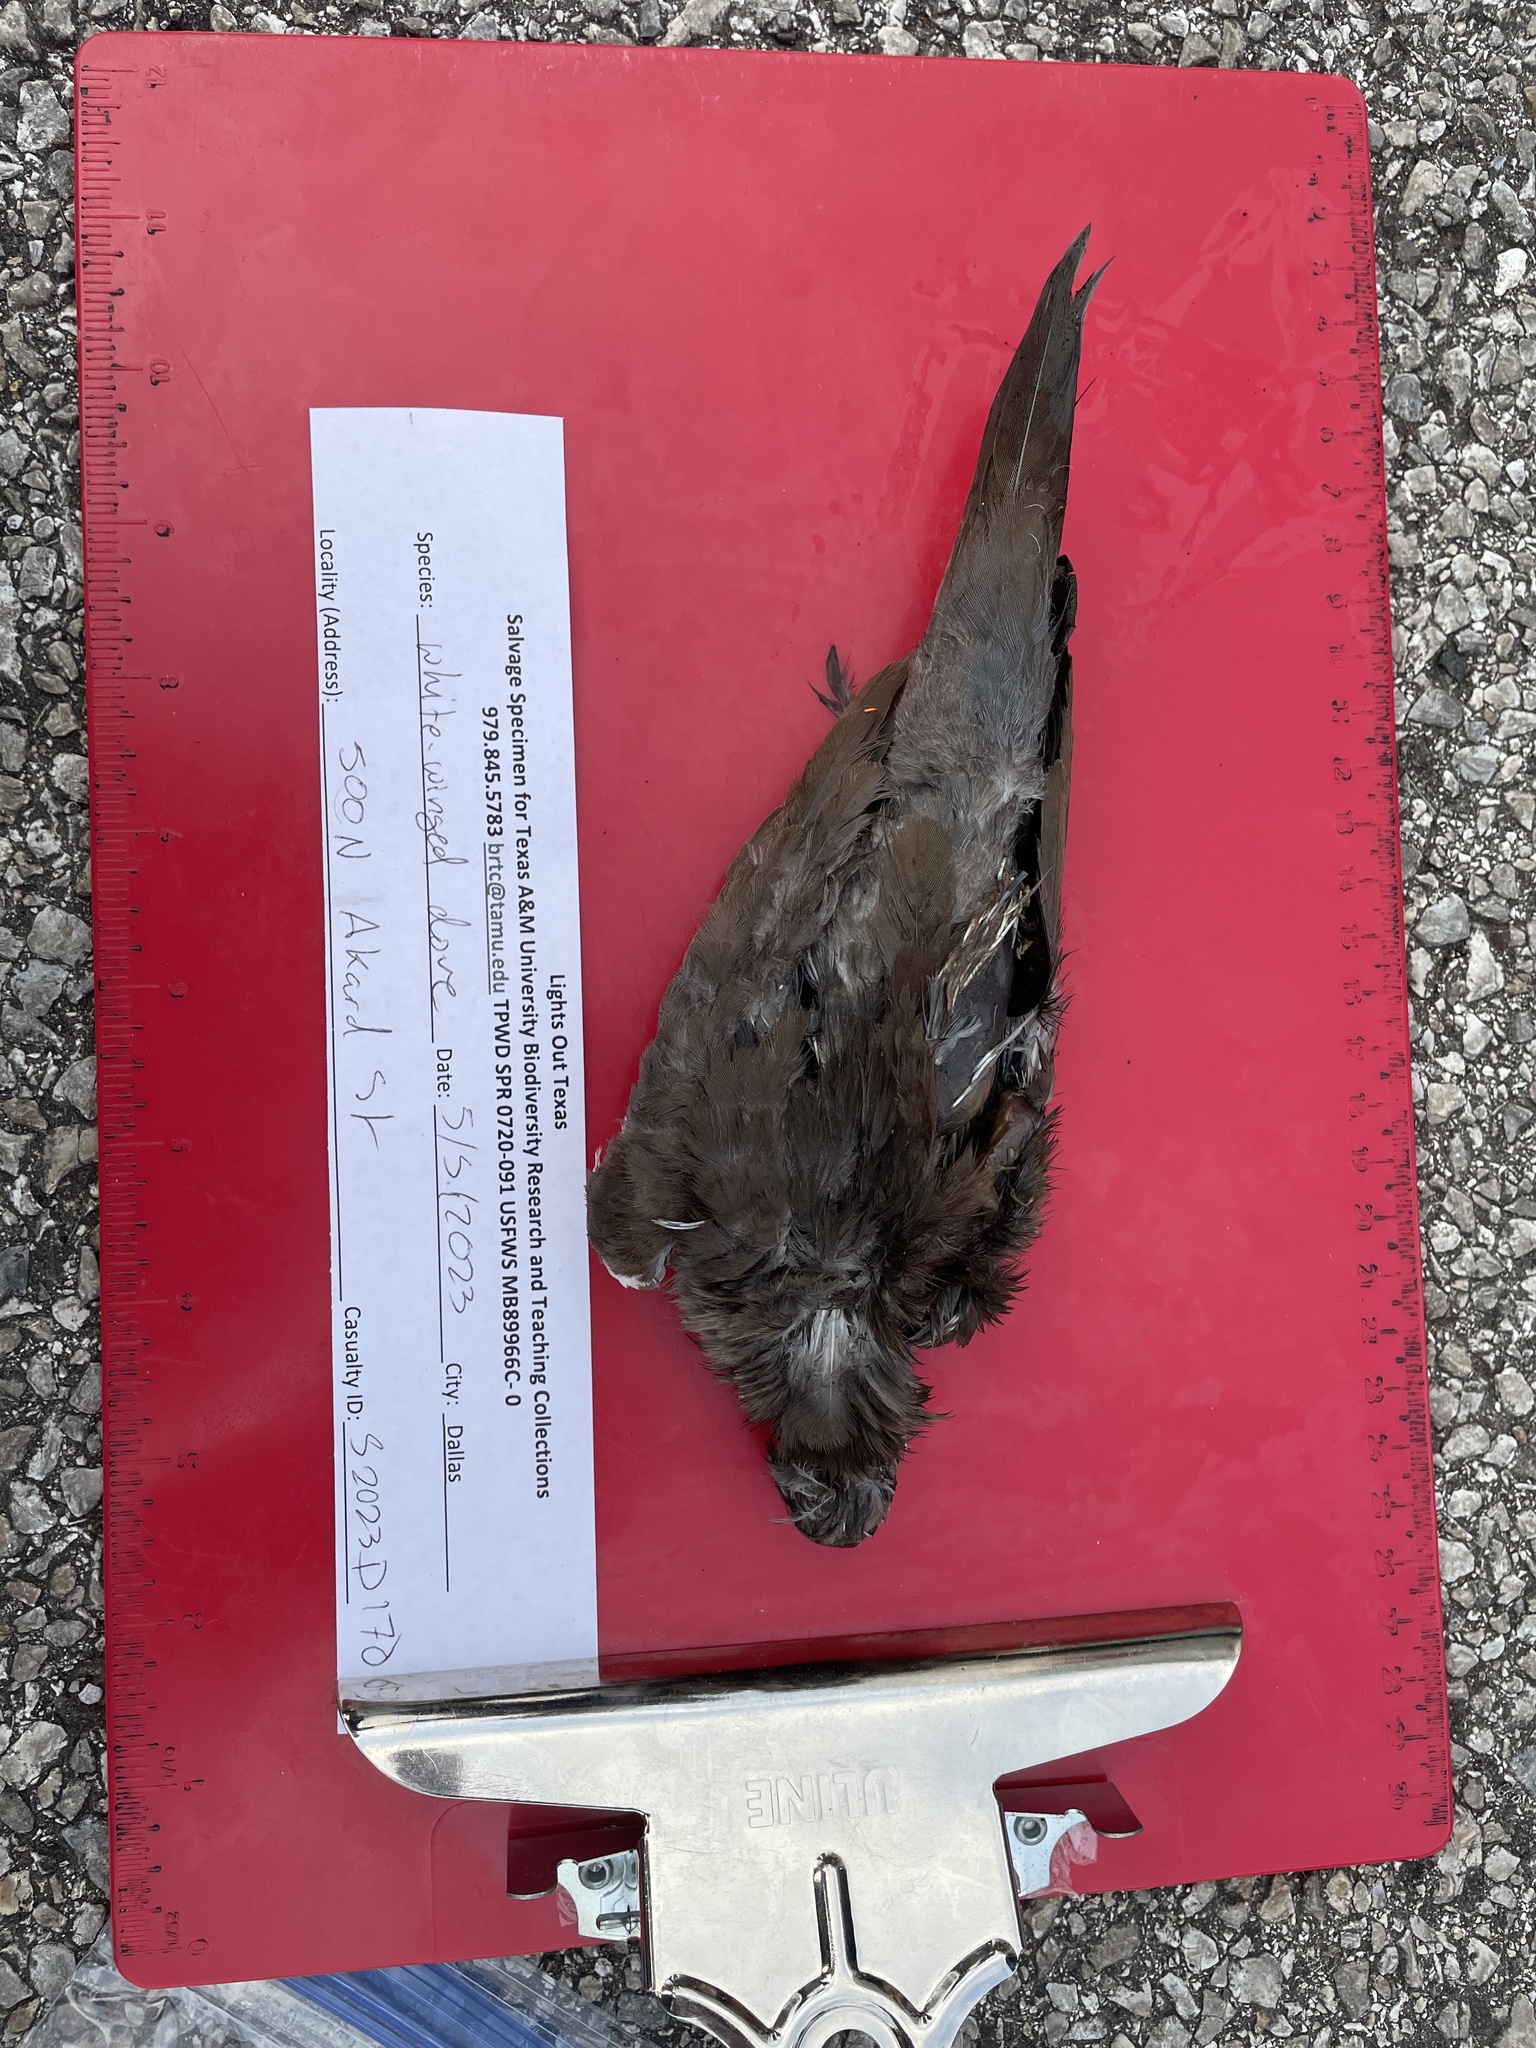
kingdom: Animalia
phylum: Chordata
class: Aves
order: Columbiformes
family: Columbidae
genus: Zenaida
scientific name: Zenaida asiatica
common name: White-winged dove
